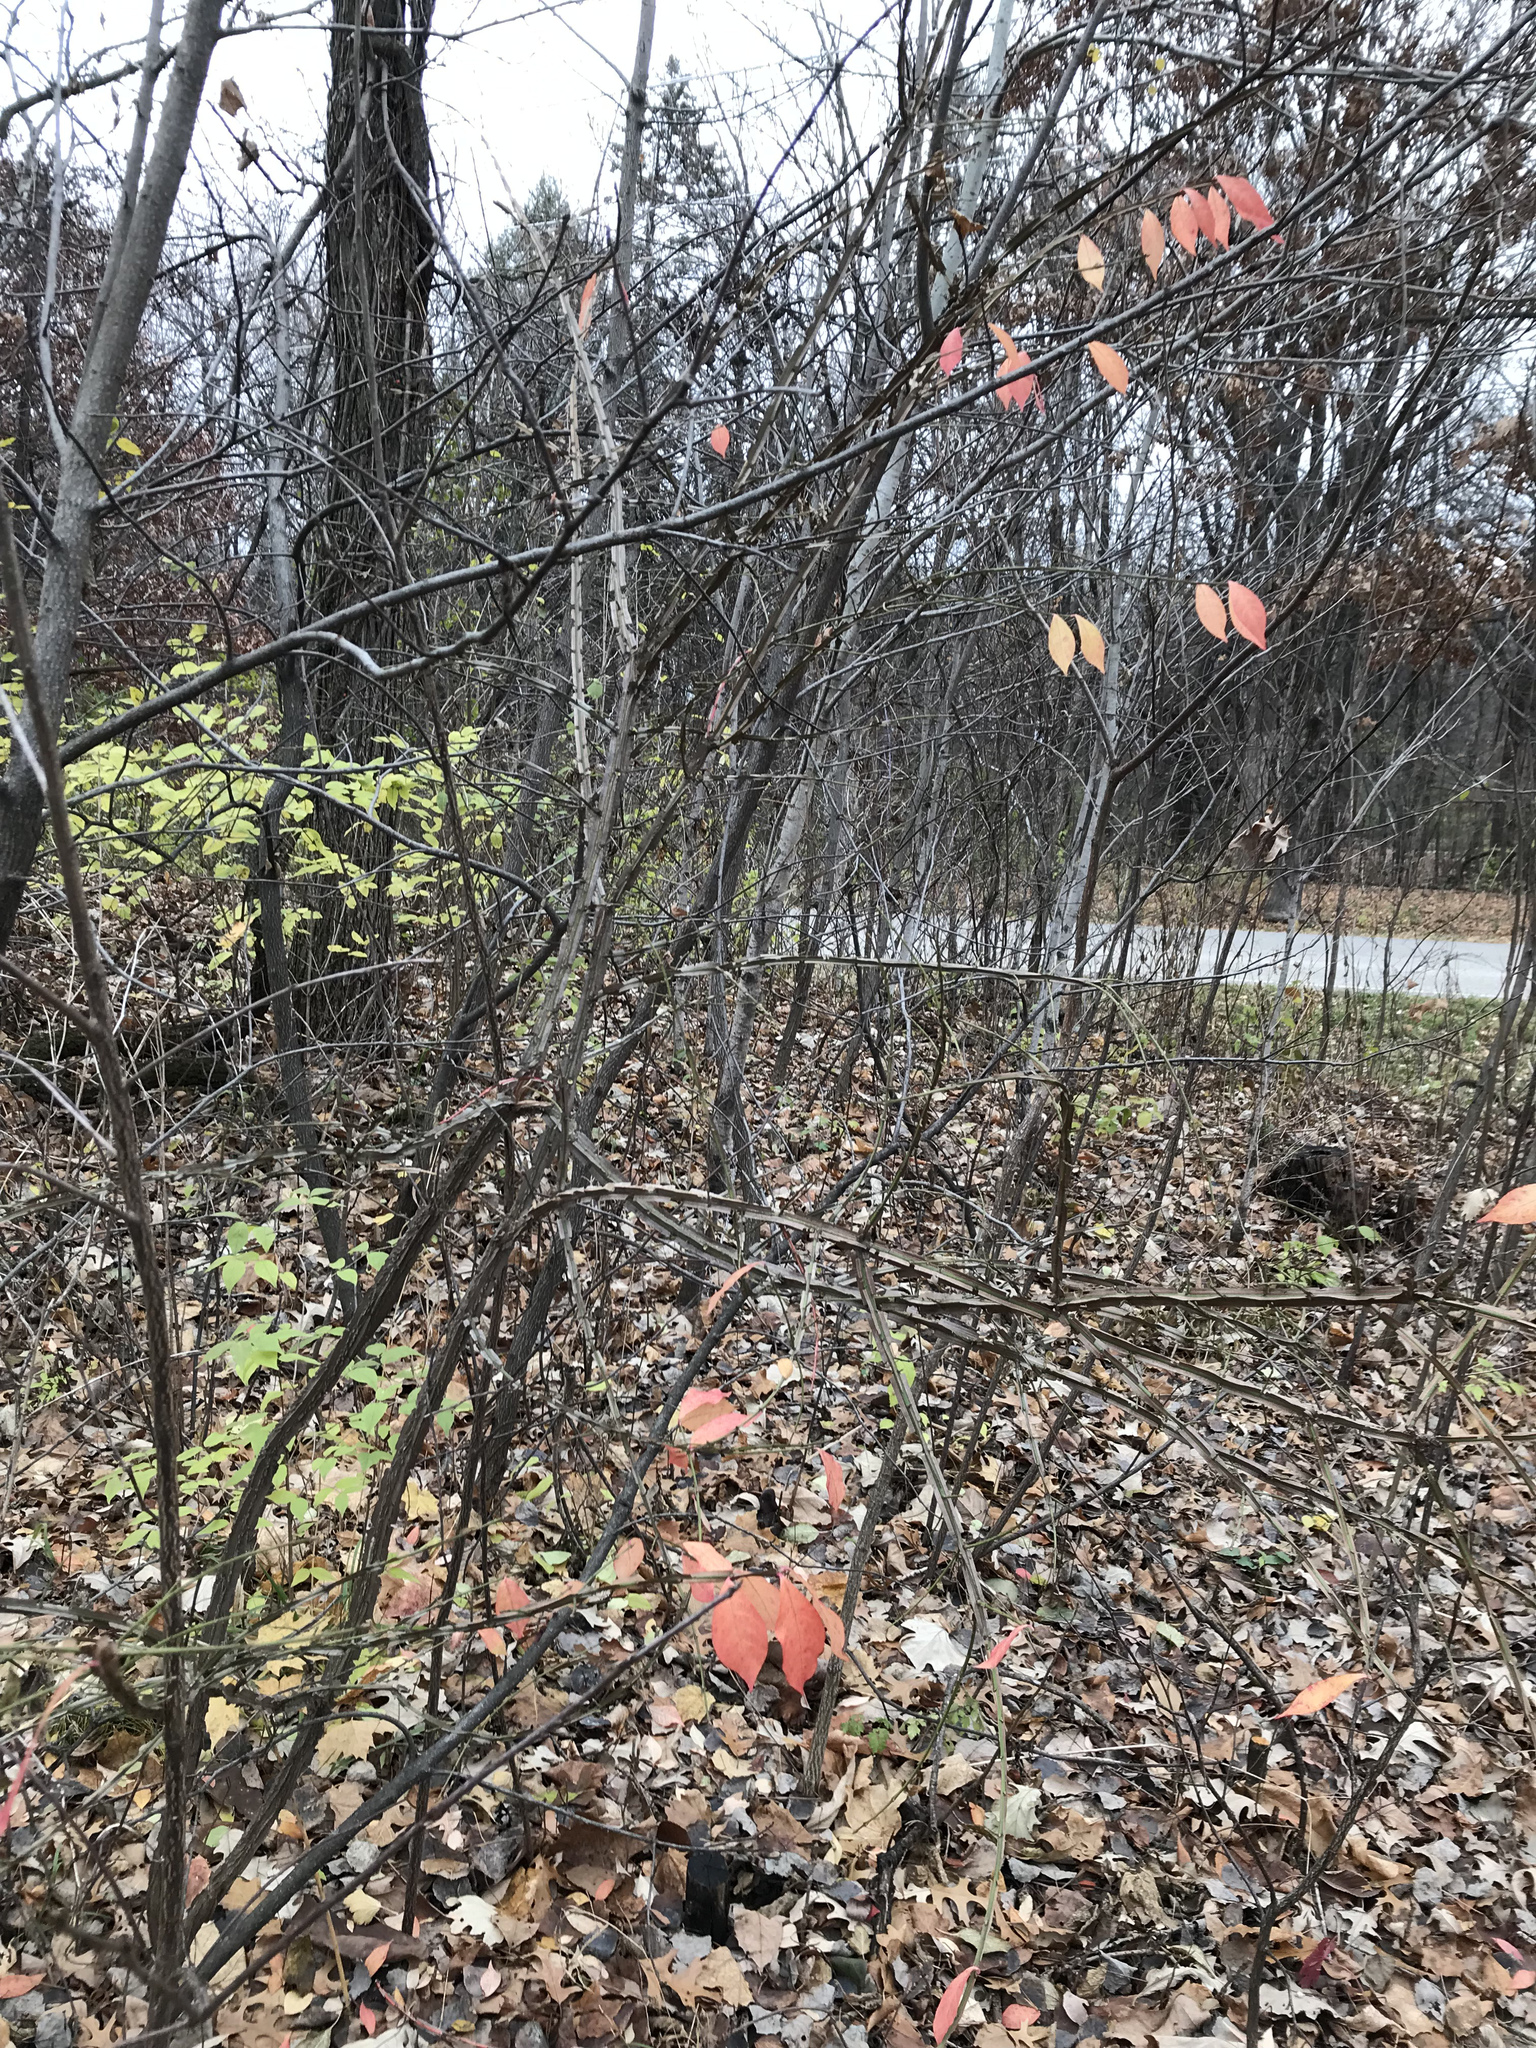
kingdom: Plantae
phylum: Tracheophyta
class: Magnoliopsida
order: Celastrales
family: Celastraceae
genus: Euonymus
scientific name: Euonymus alatus
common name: Winged euonymus
